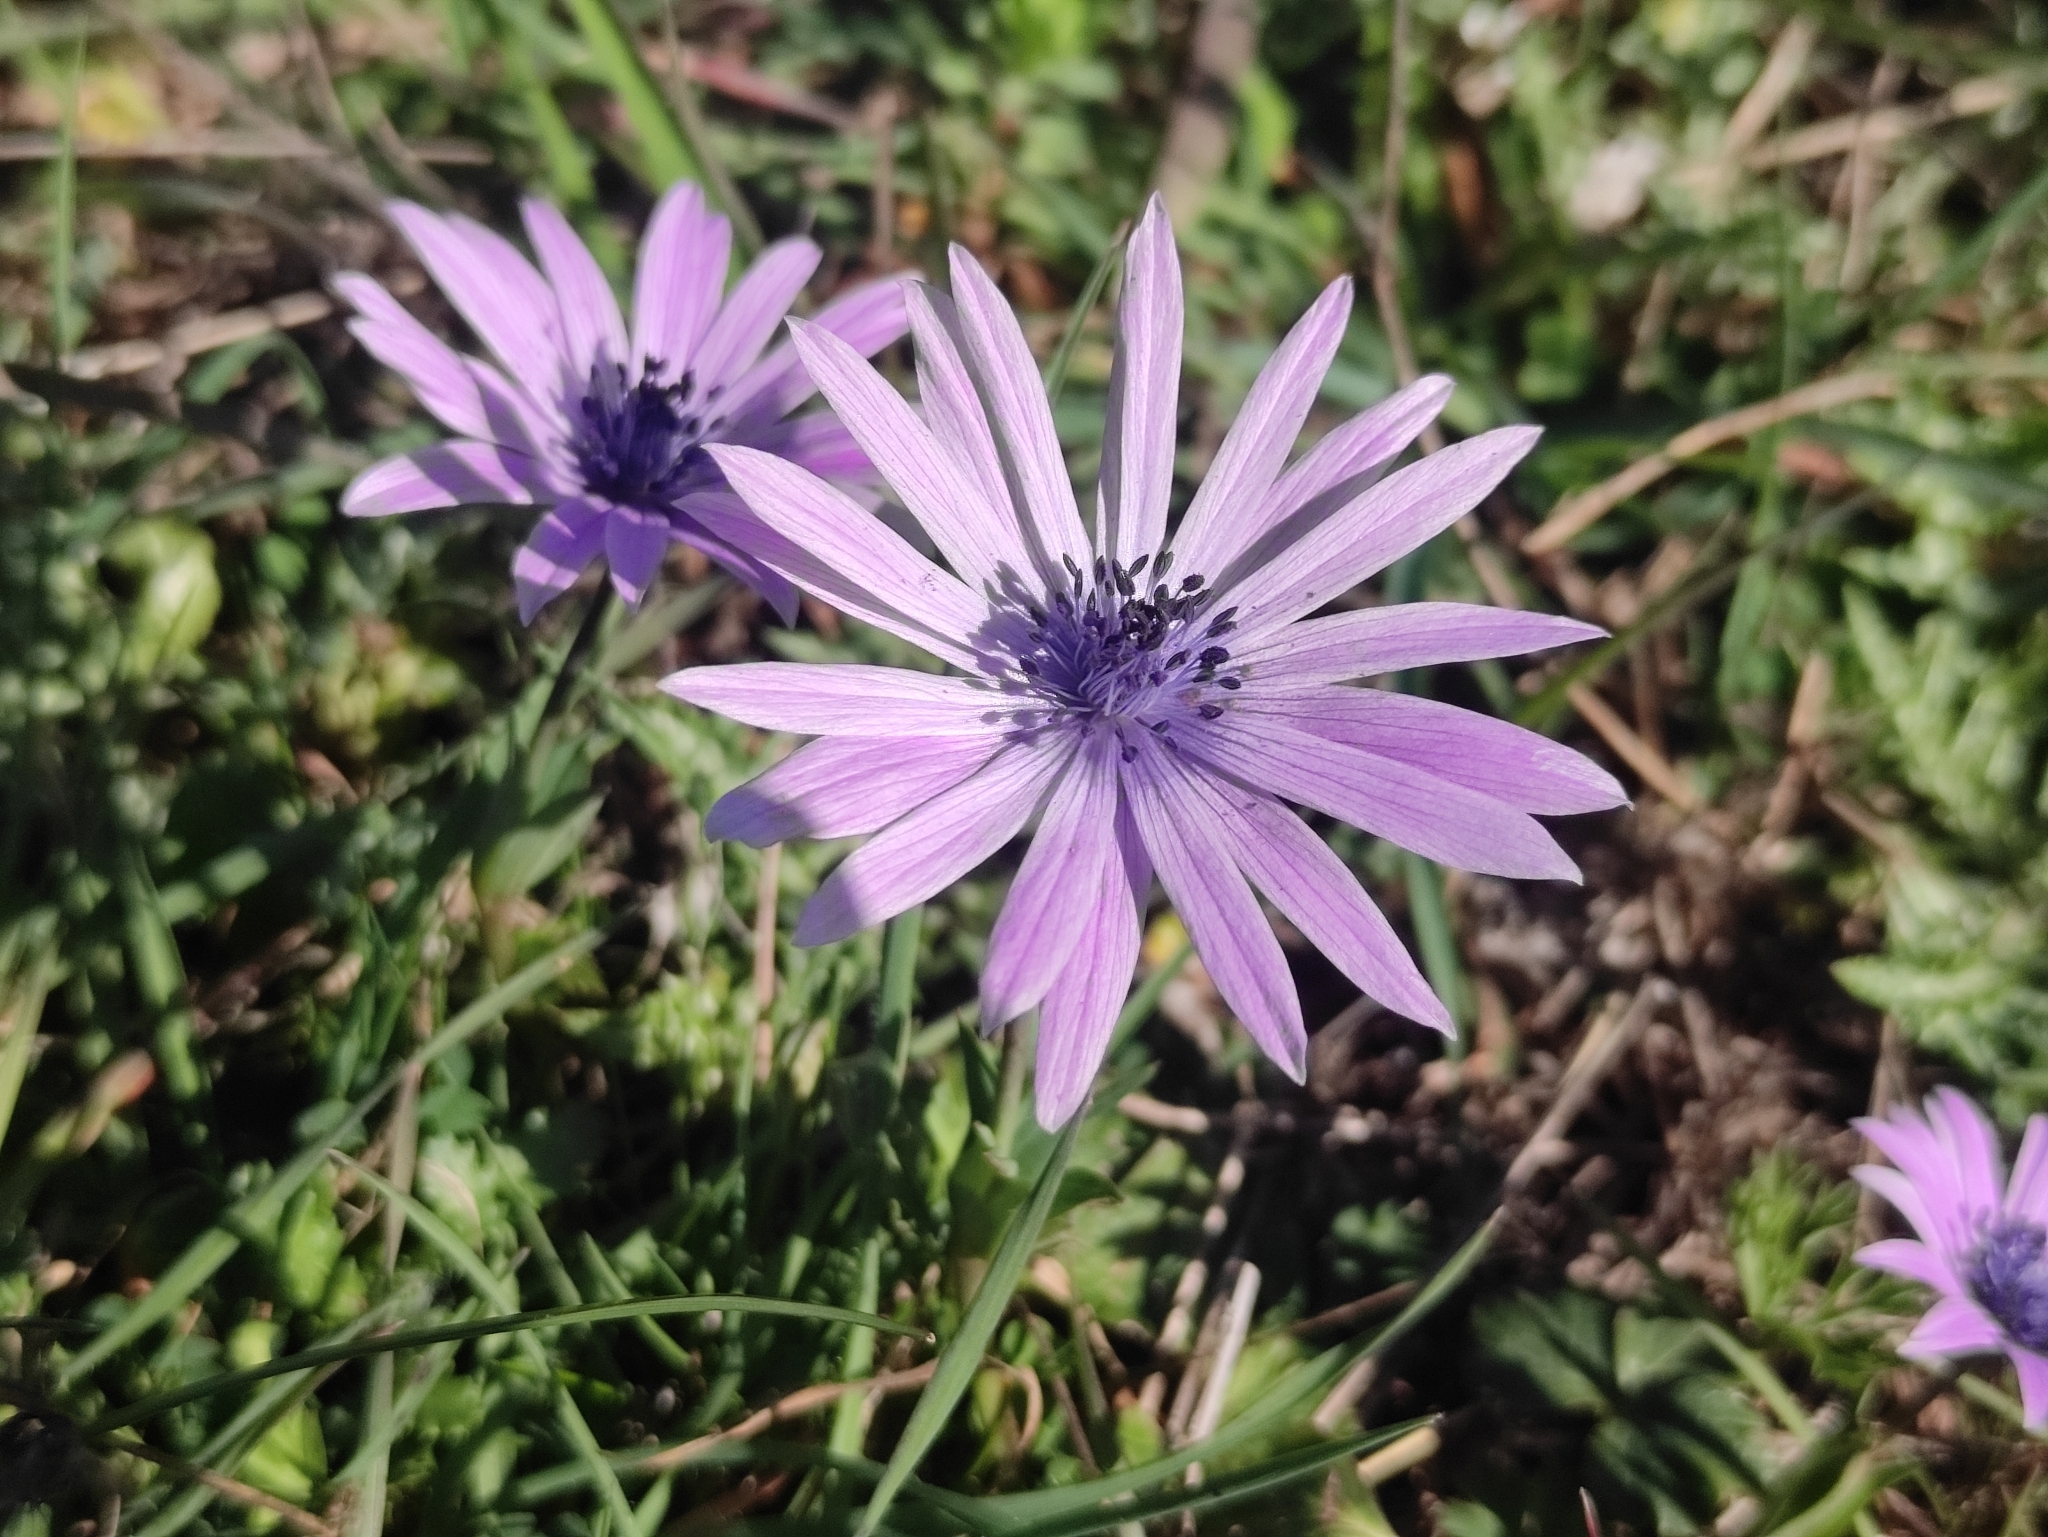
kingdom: Plantae
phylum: Tracheophyta
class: Magnoliopsida
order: Ranunculales
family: Ranunculaceae
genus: Anemone
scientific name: Anemone hortensis
